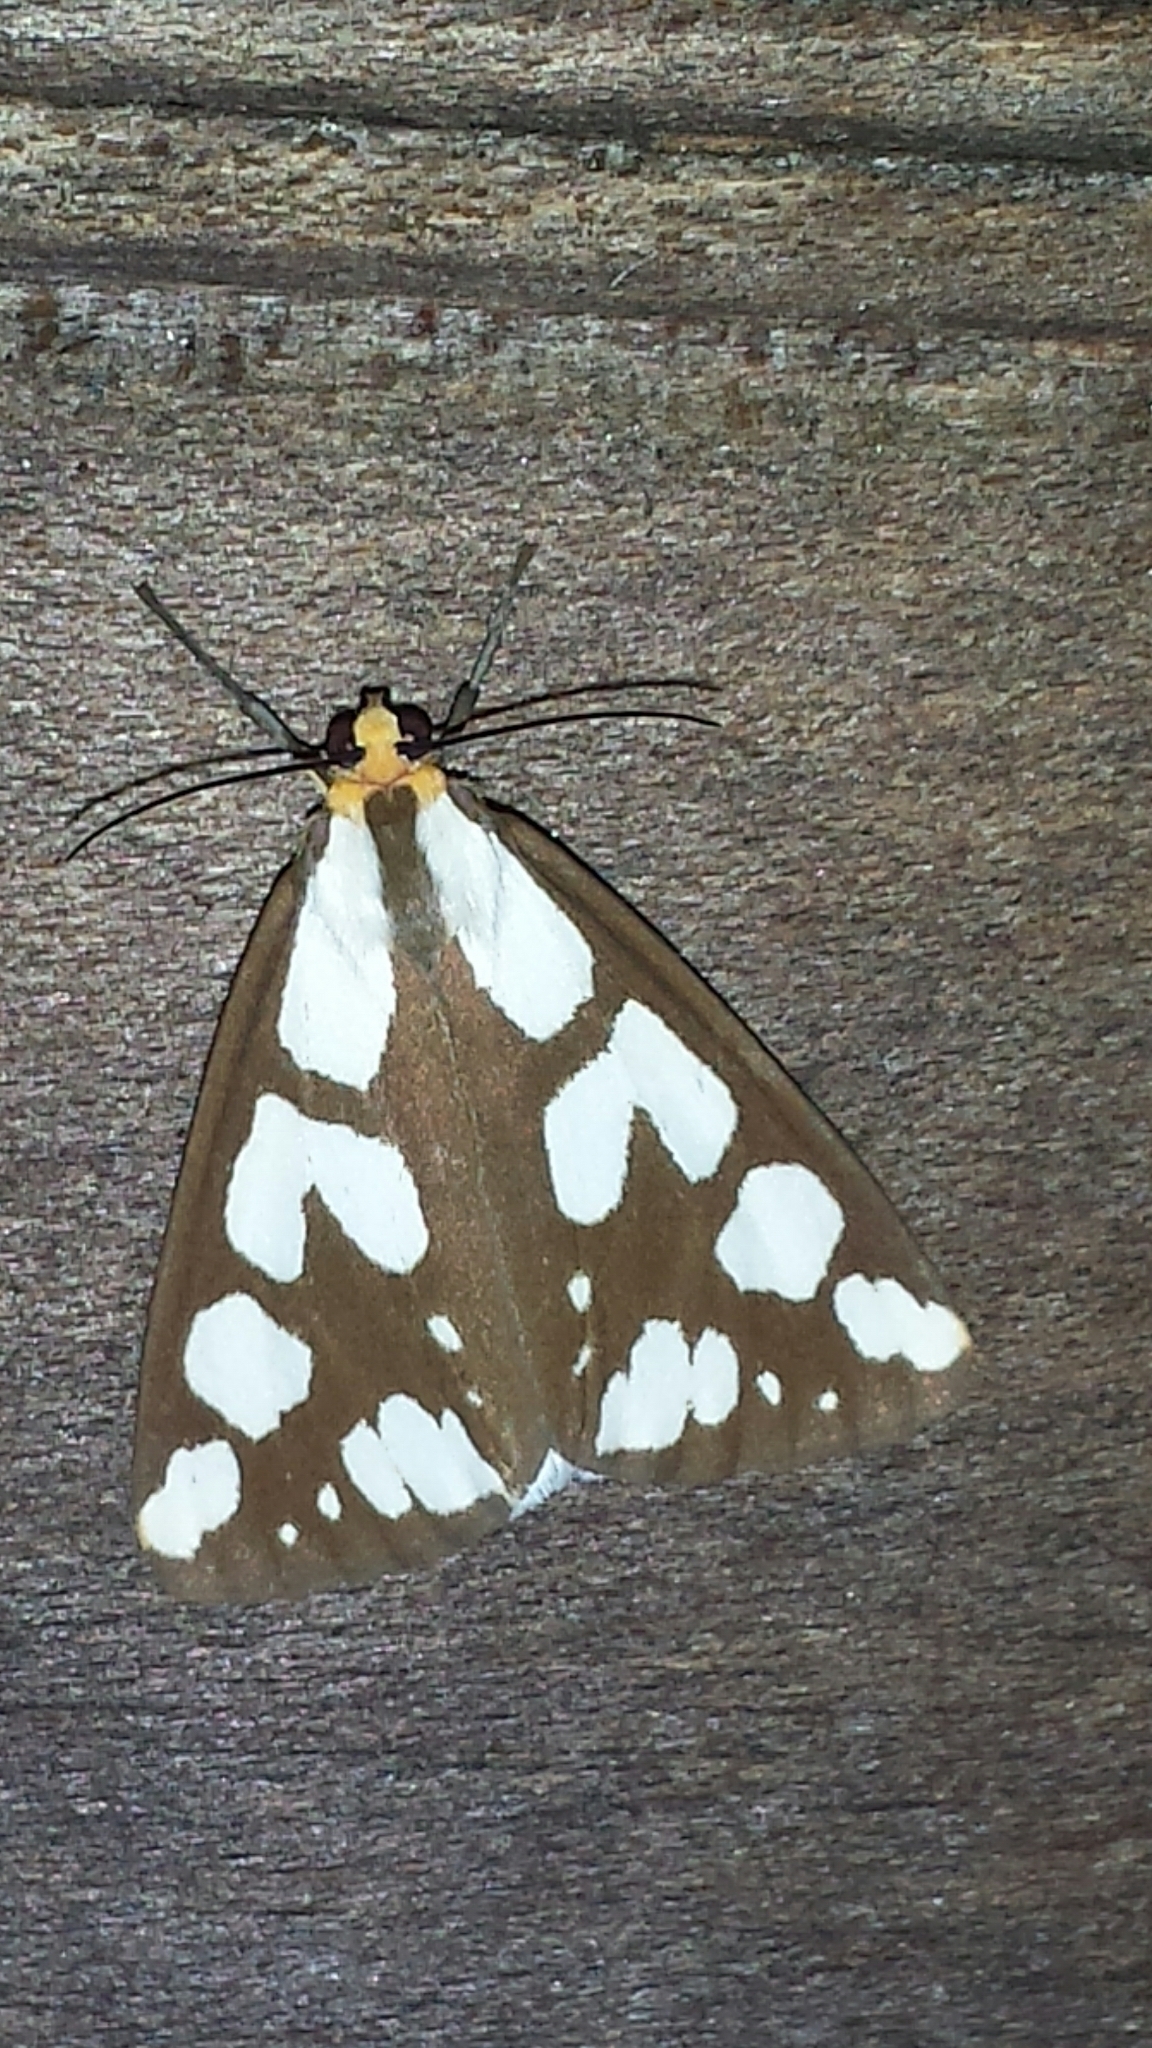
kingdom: Animalia
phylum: Arthropoda
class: Insecta
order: Lepidoptera
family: Erebidae
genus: Haploa
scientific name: Haploa confusa
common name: Confused haploa moth
